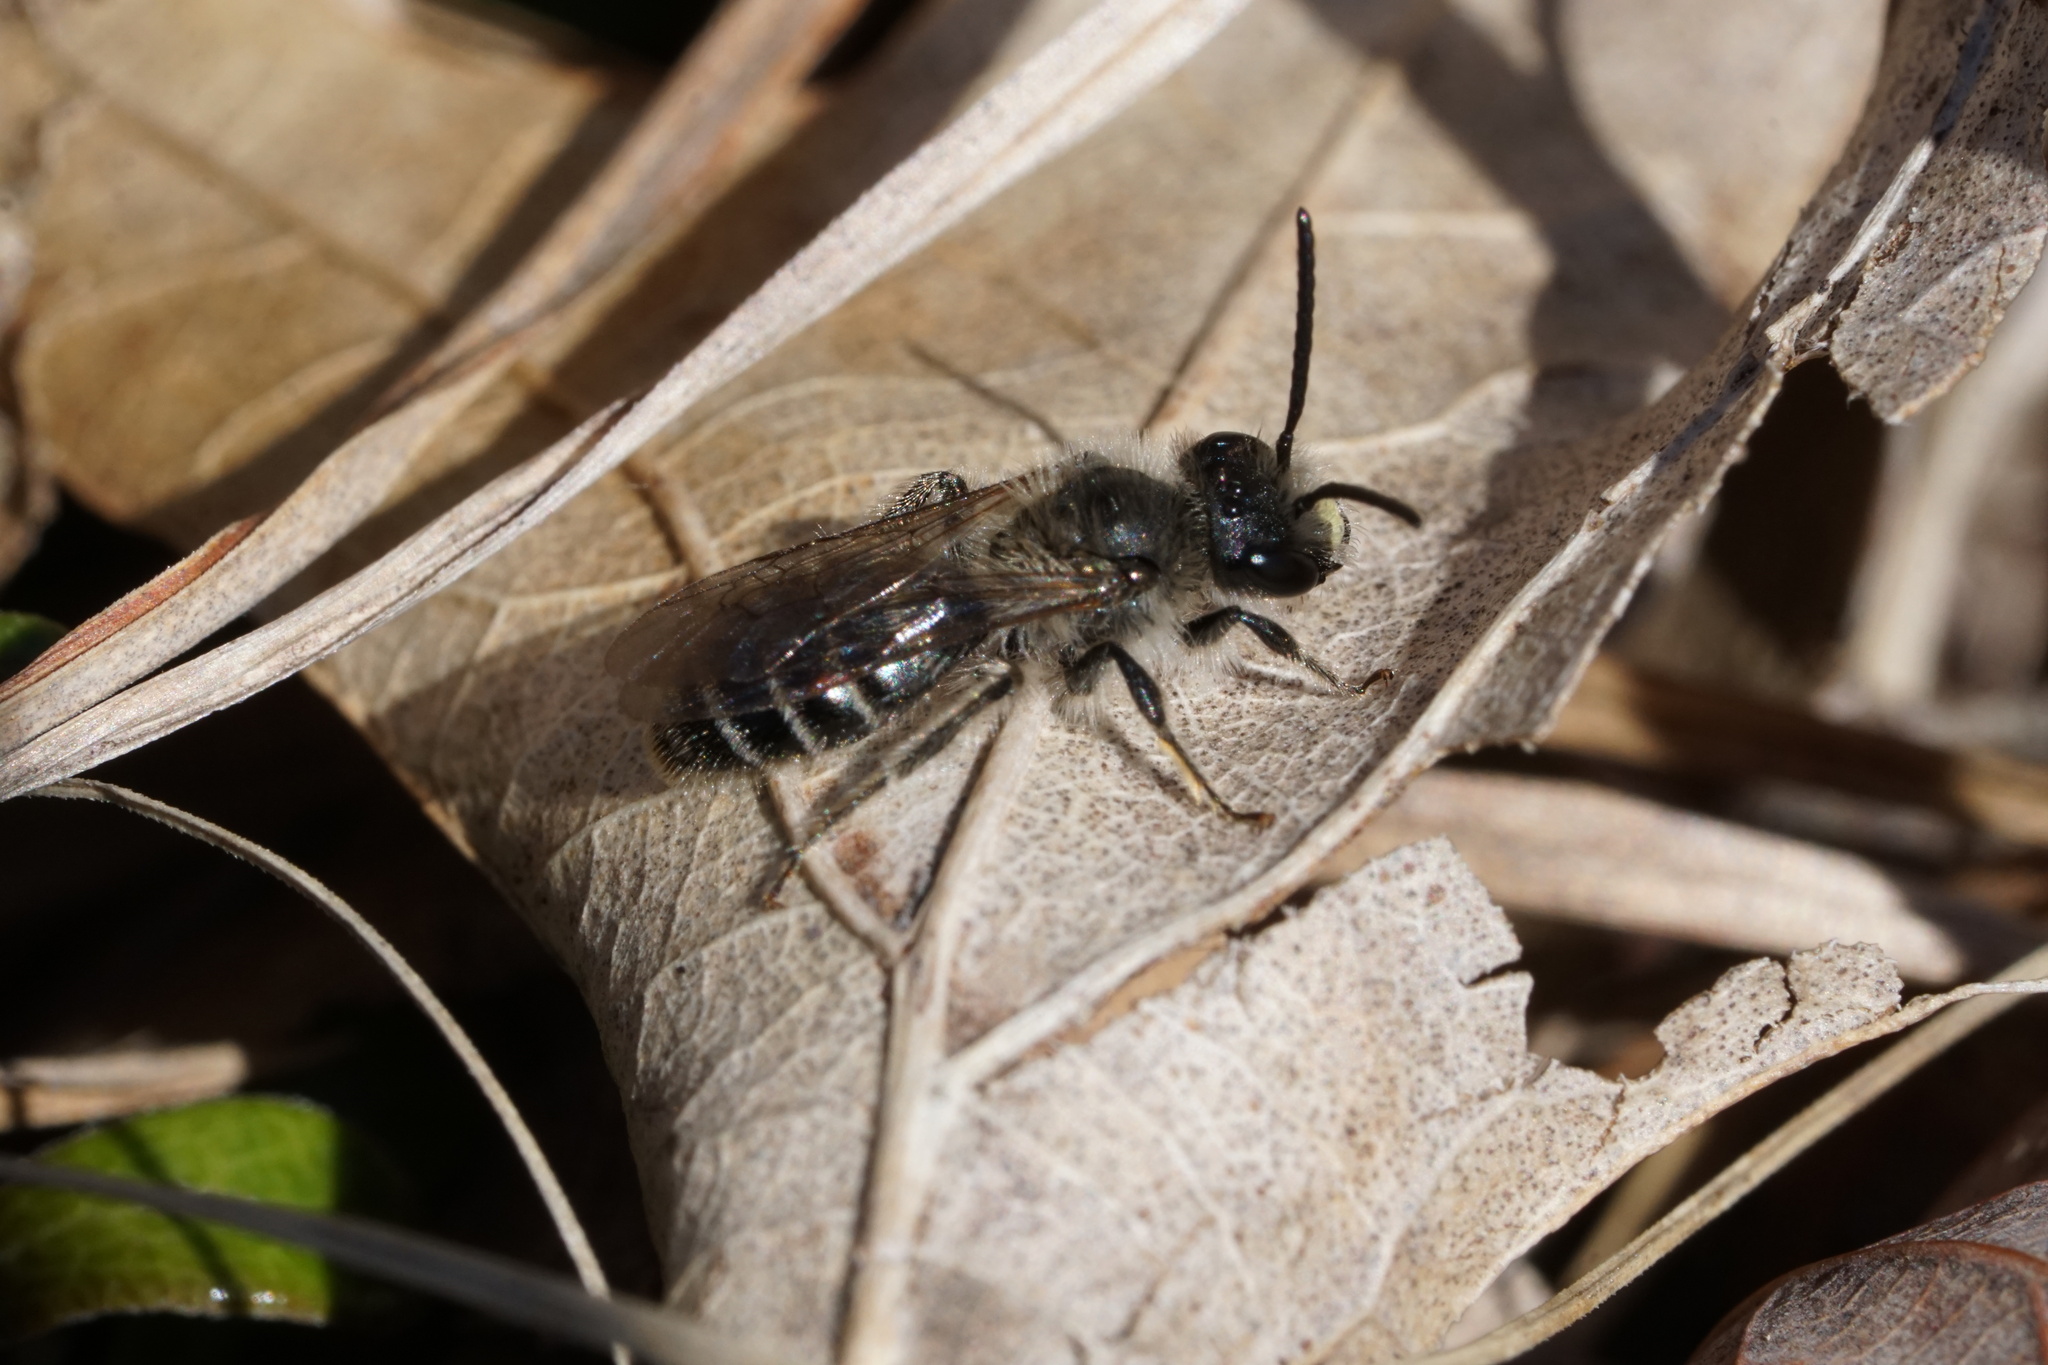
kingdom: Animalia
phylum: Arthropoda
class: Insecta
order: Hymenoptera
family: Andrenidae
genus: Andrena
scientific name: Andrena bradleyi
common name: Bradley's mining bee
